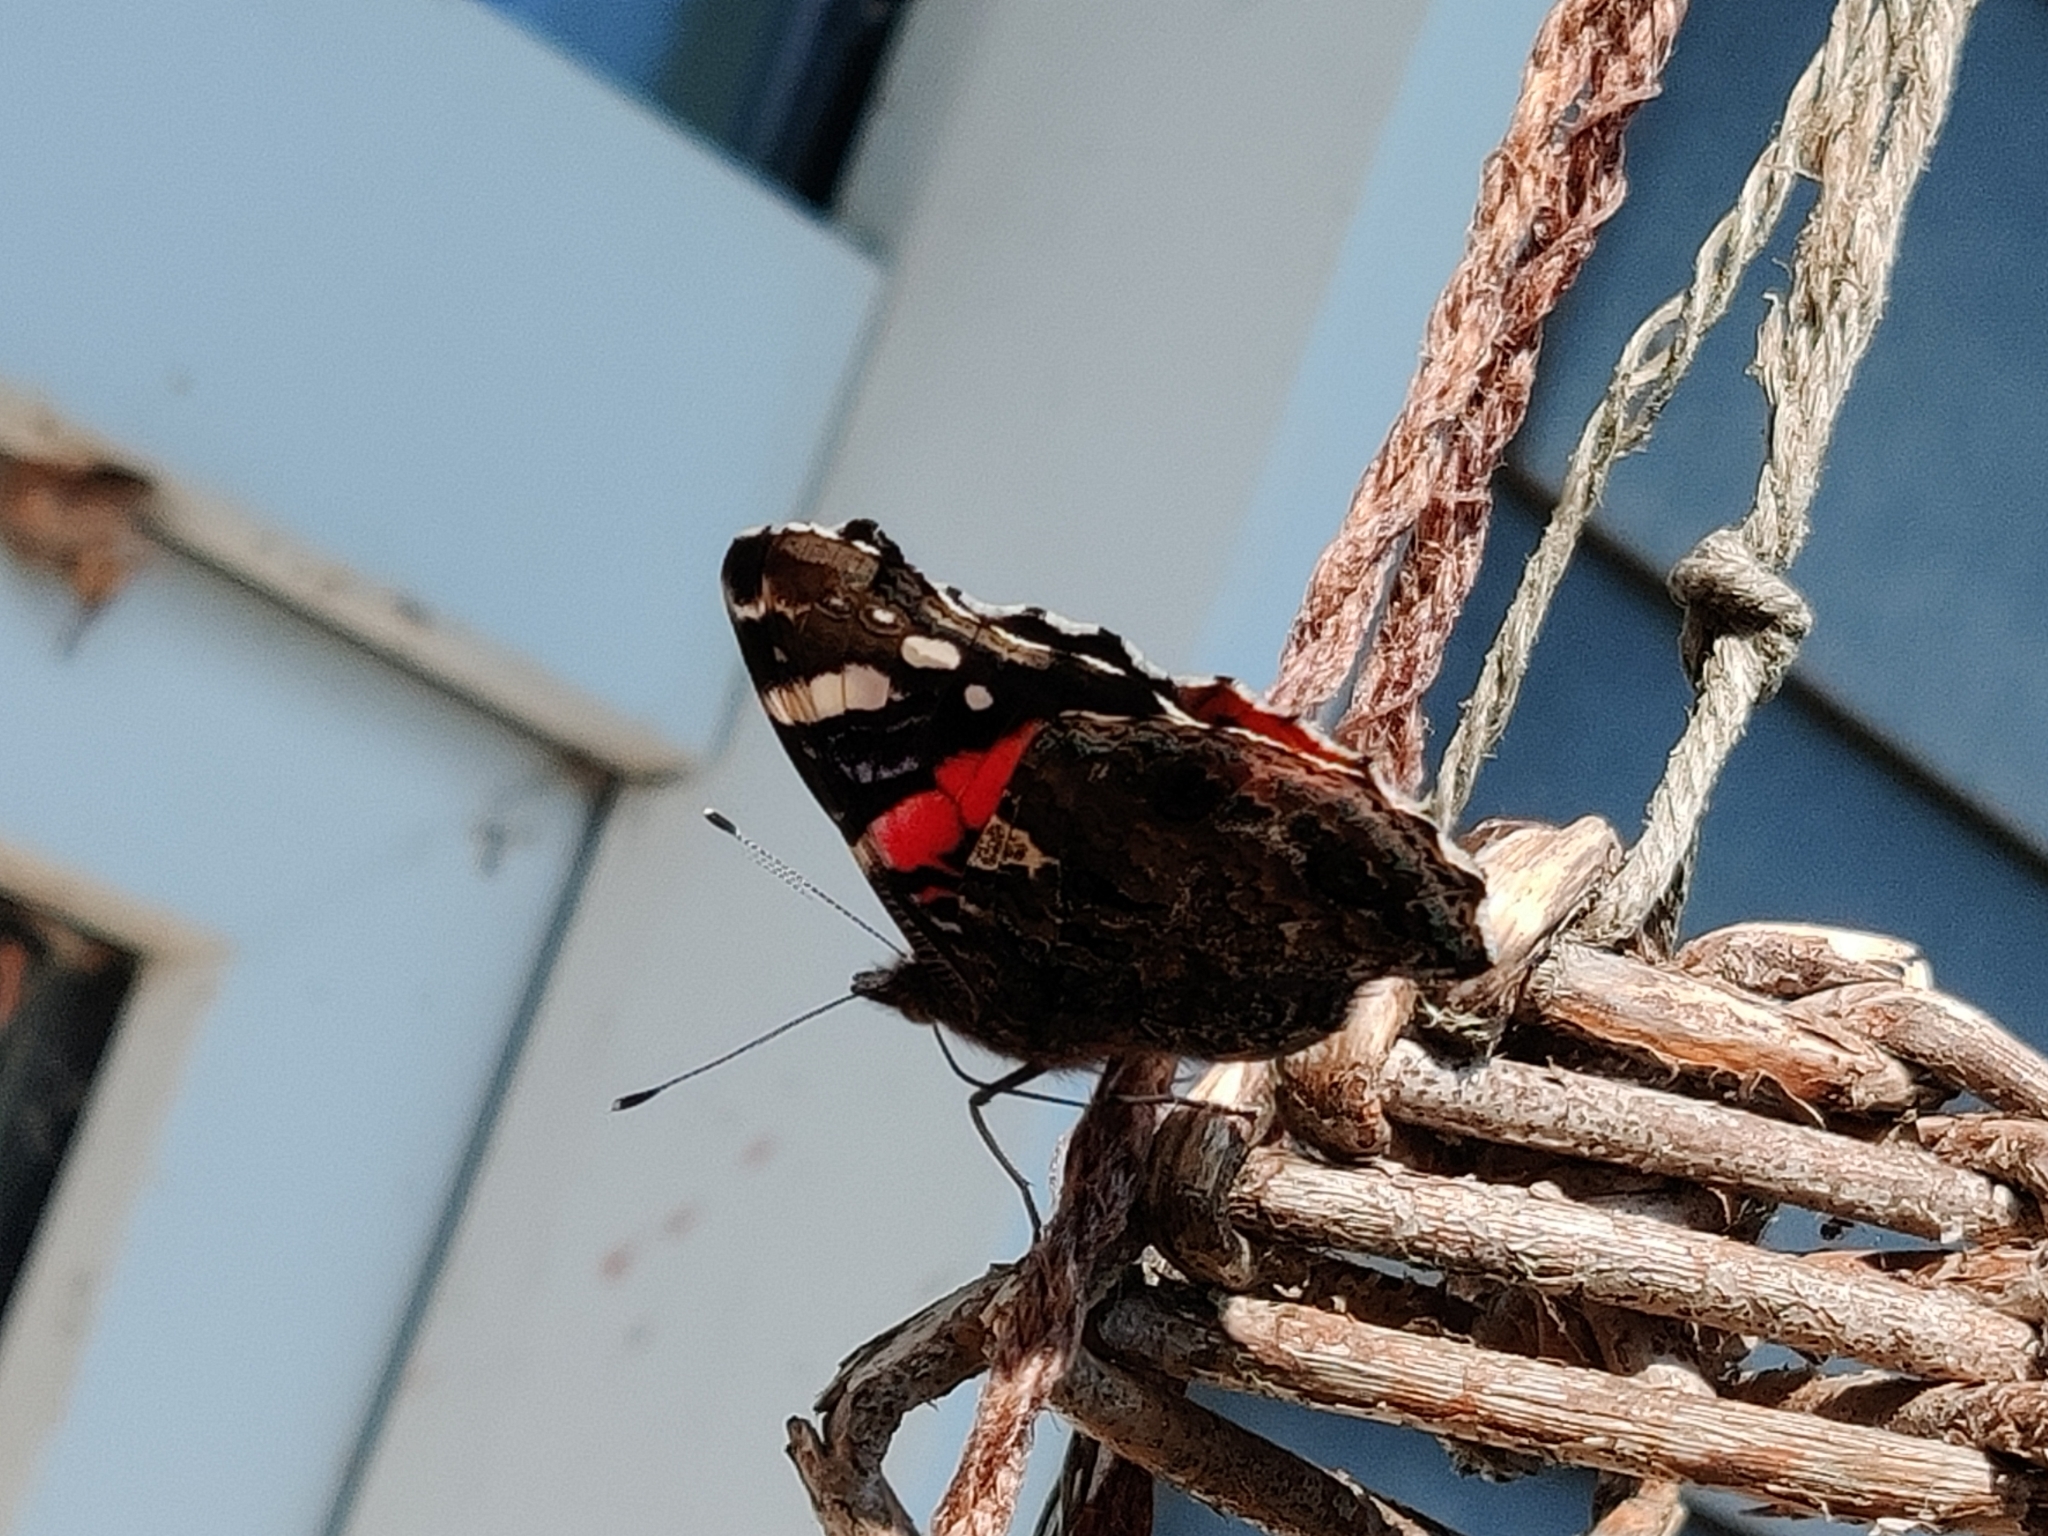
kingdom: Animalia
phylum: Arthropoda
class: Insecta
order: Lepidoptera
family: Nymphalidae
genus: Vanessa
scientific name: Vanessa atalanta
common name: Red admiral
